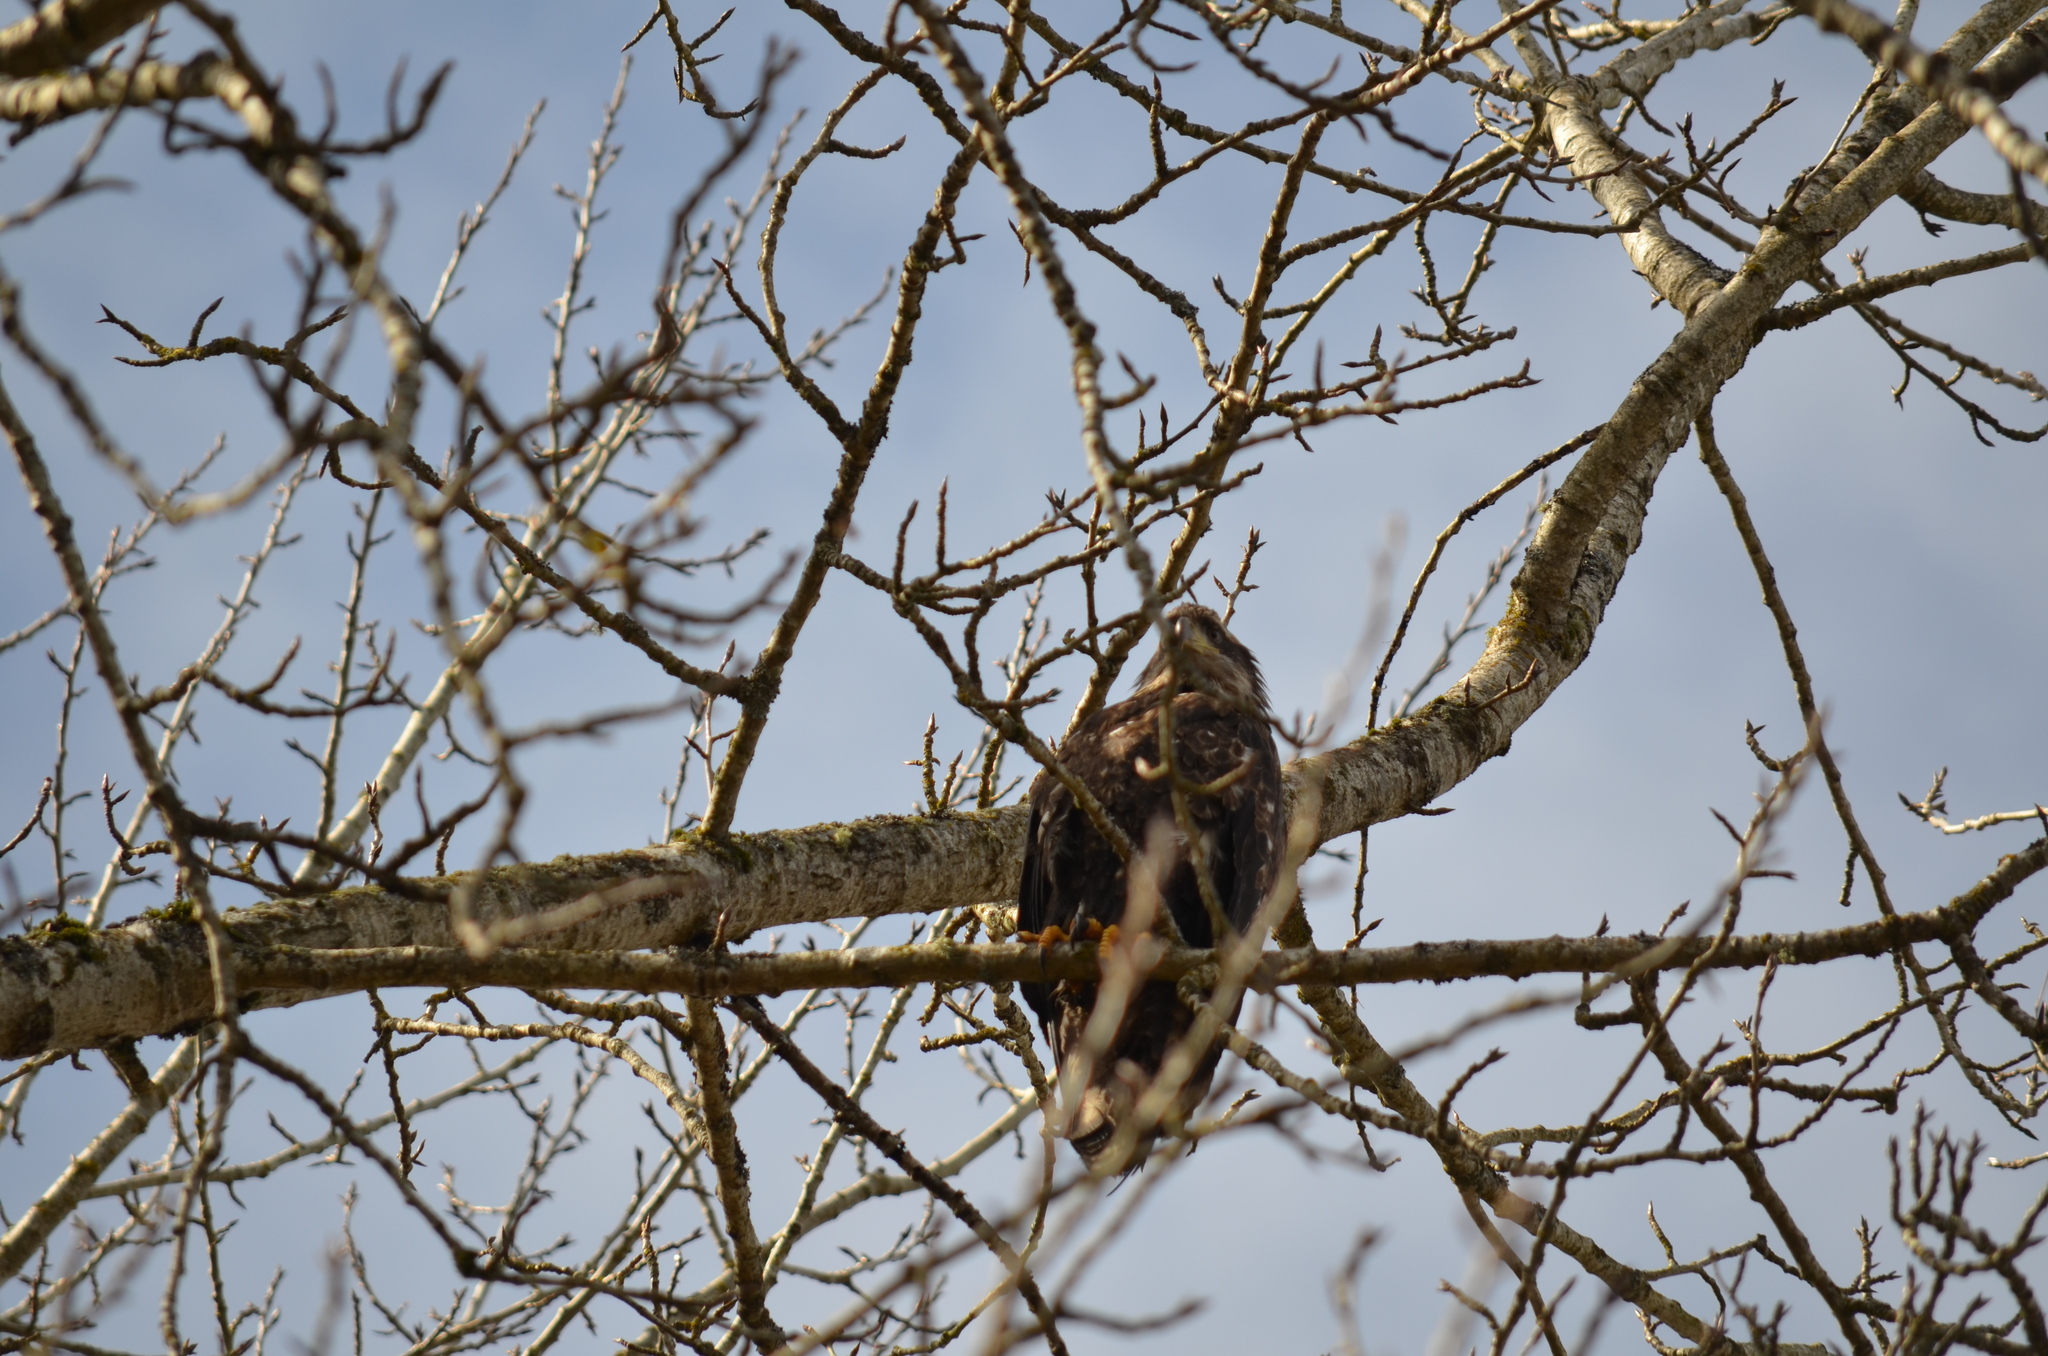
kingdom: Animalia
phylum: Chordata
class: Aves
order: Accipitriformes
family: Accipitridae
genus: Haliaeetus
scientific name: Haliaeetus leucocephalus
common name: Bald eagle
